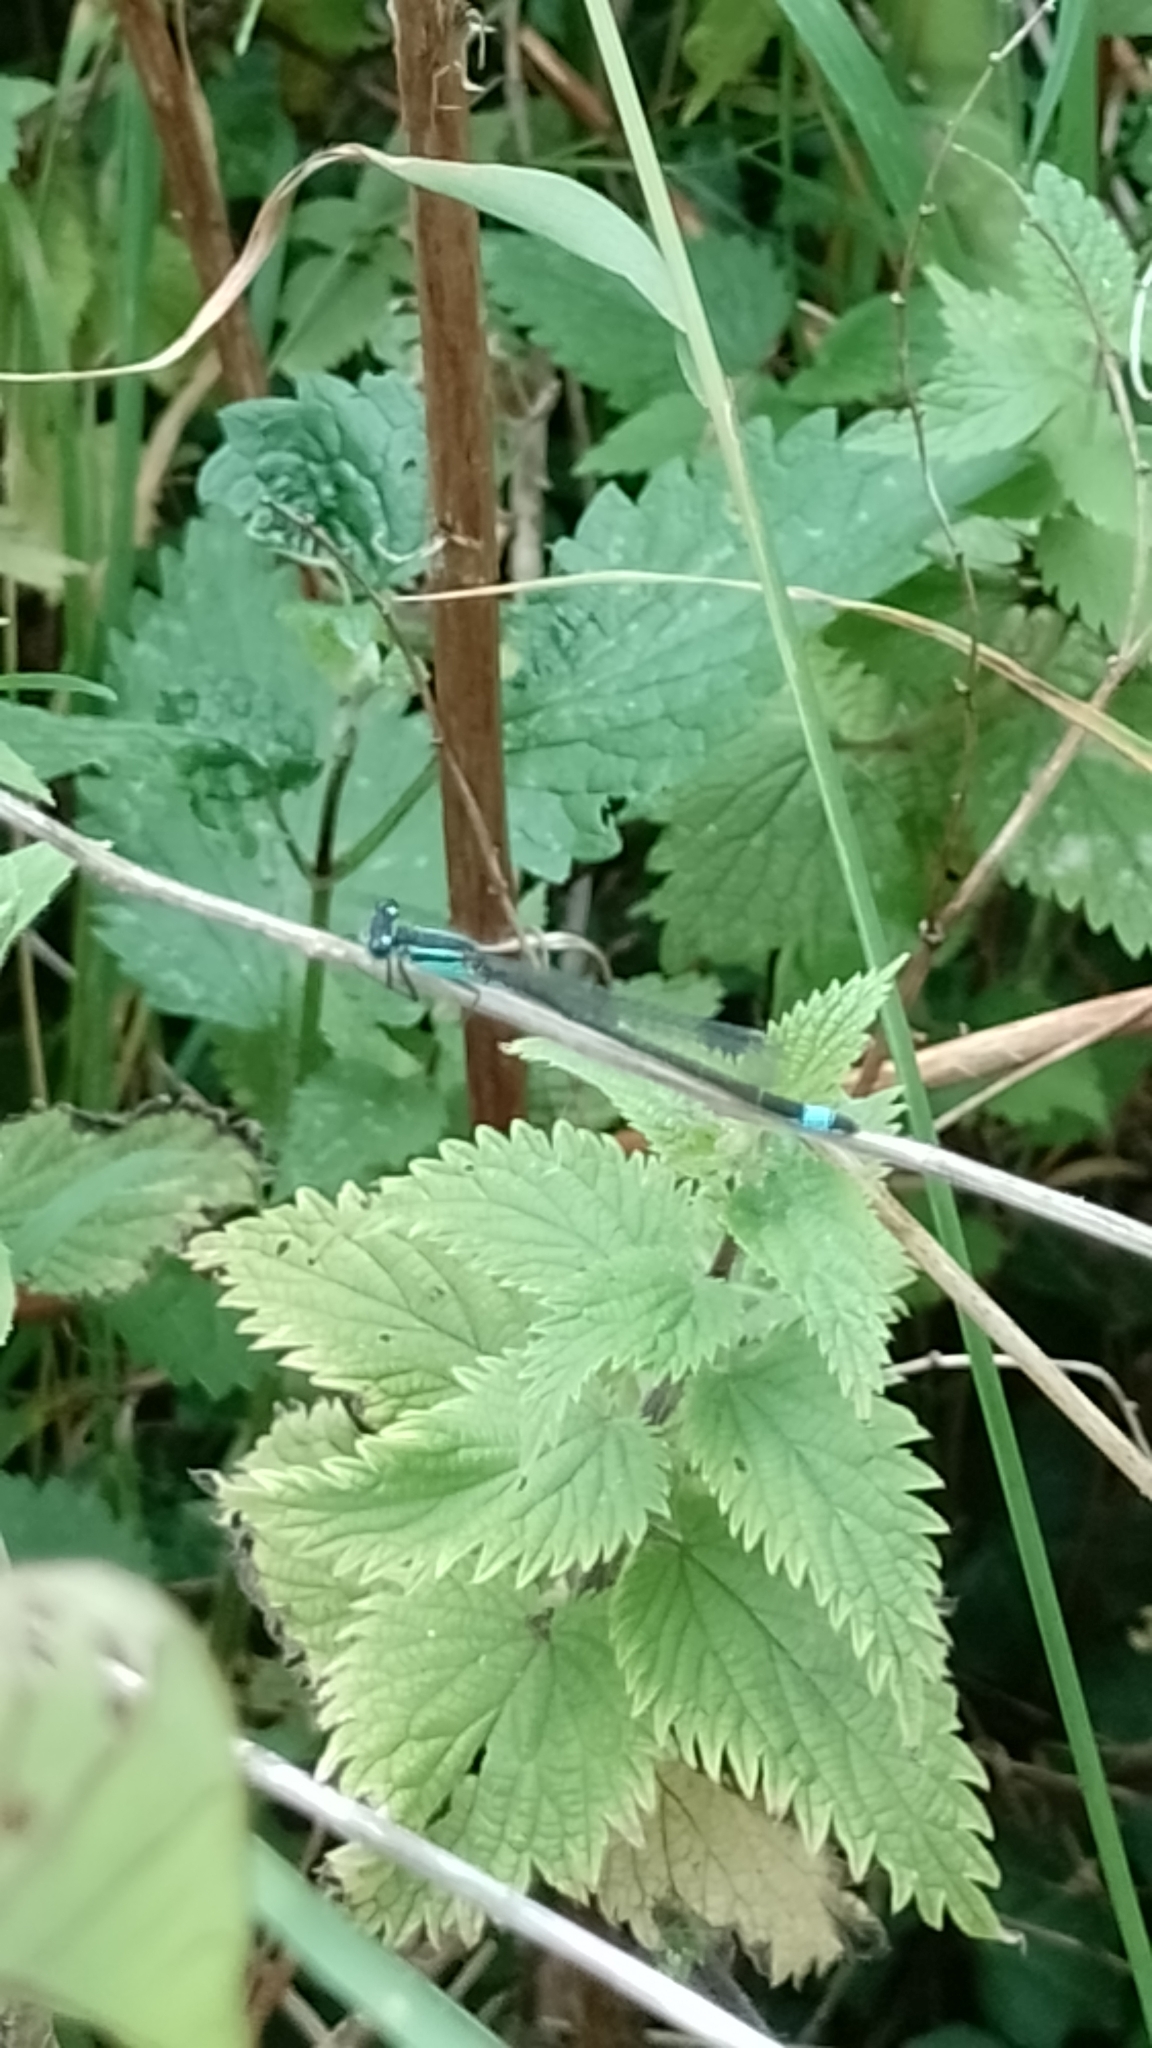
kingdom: Animalia
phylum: Arthropoda
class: Insecta
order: Odonata
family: Coenagrionidae
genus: Ischnura
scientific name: Ischnura elegans
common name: Blue-tailed damselfly
